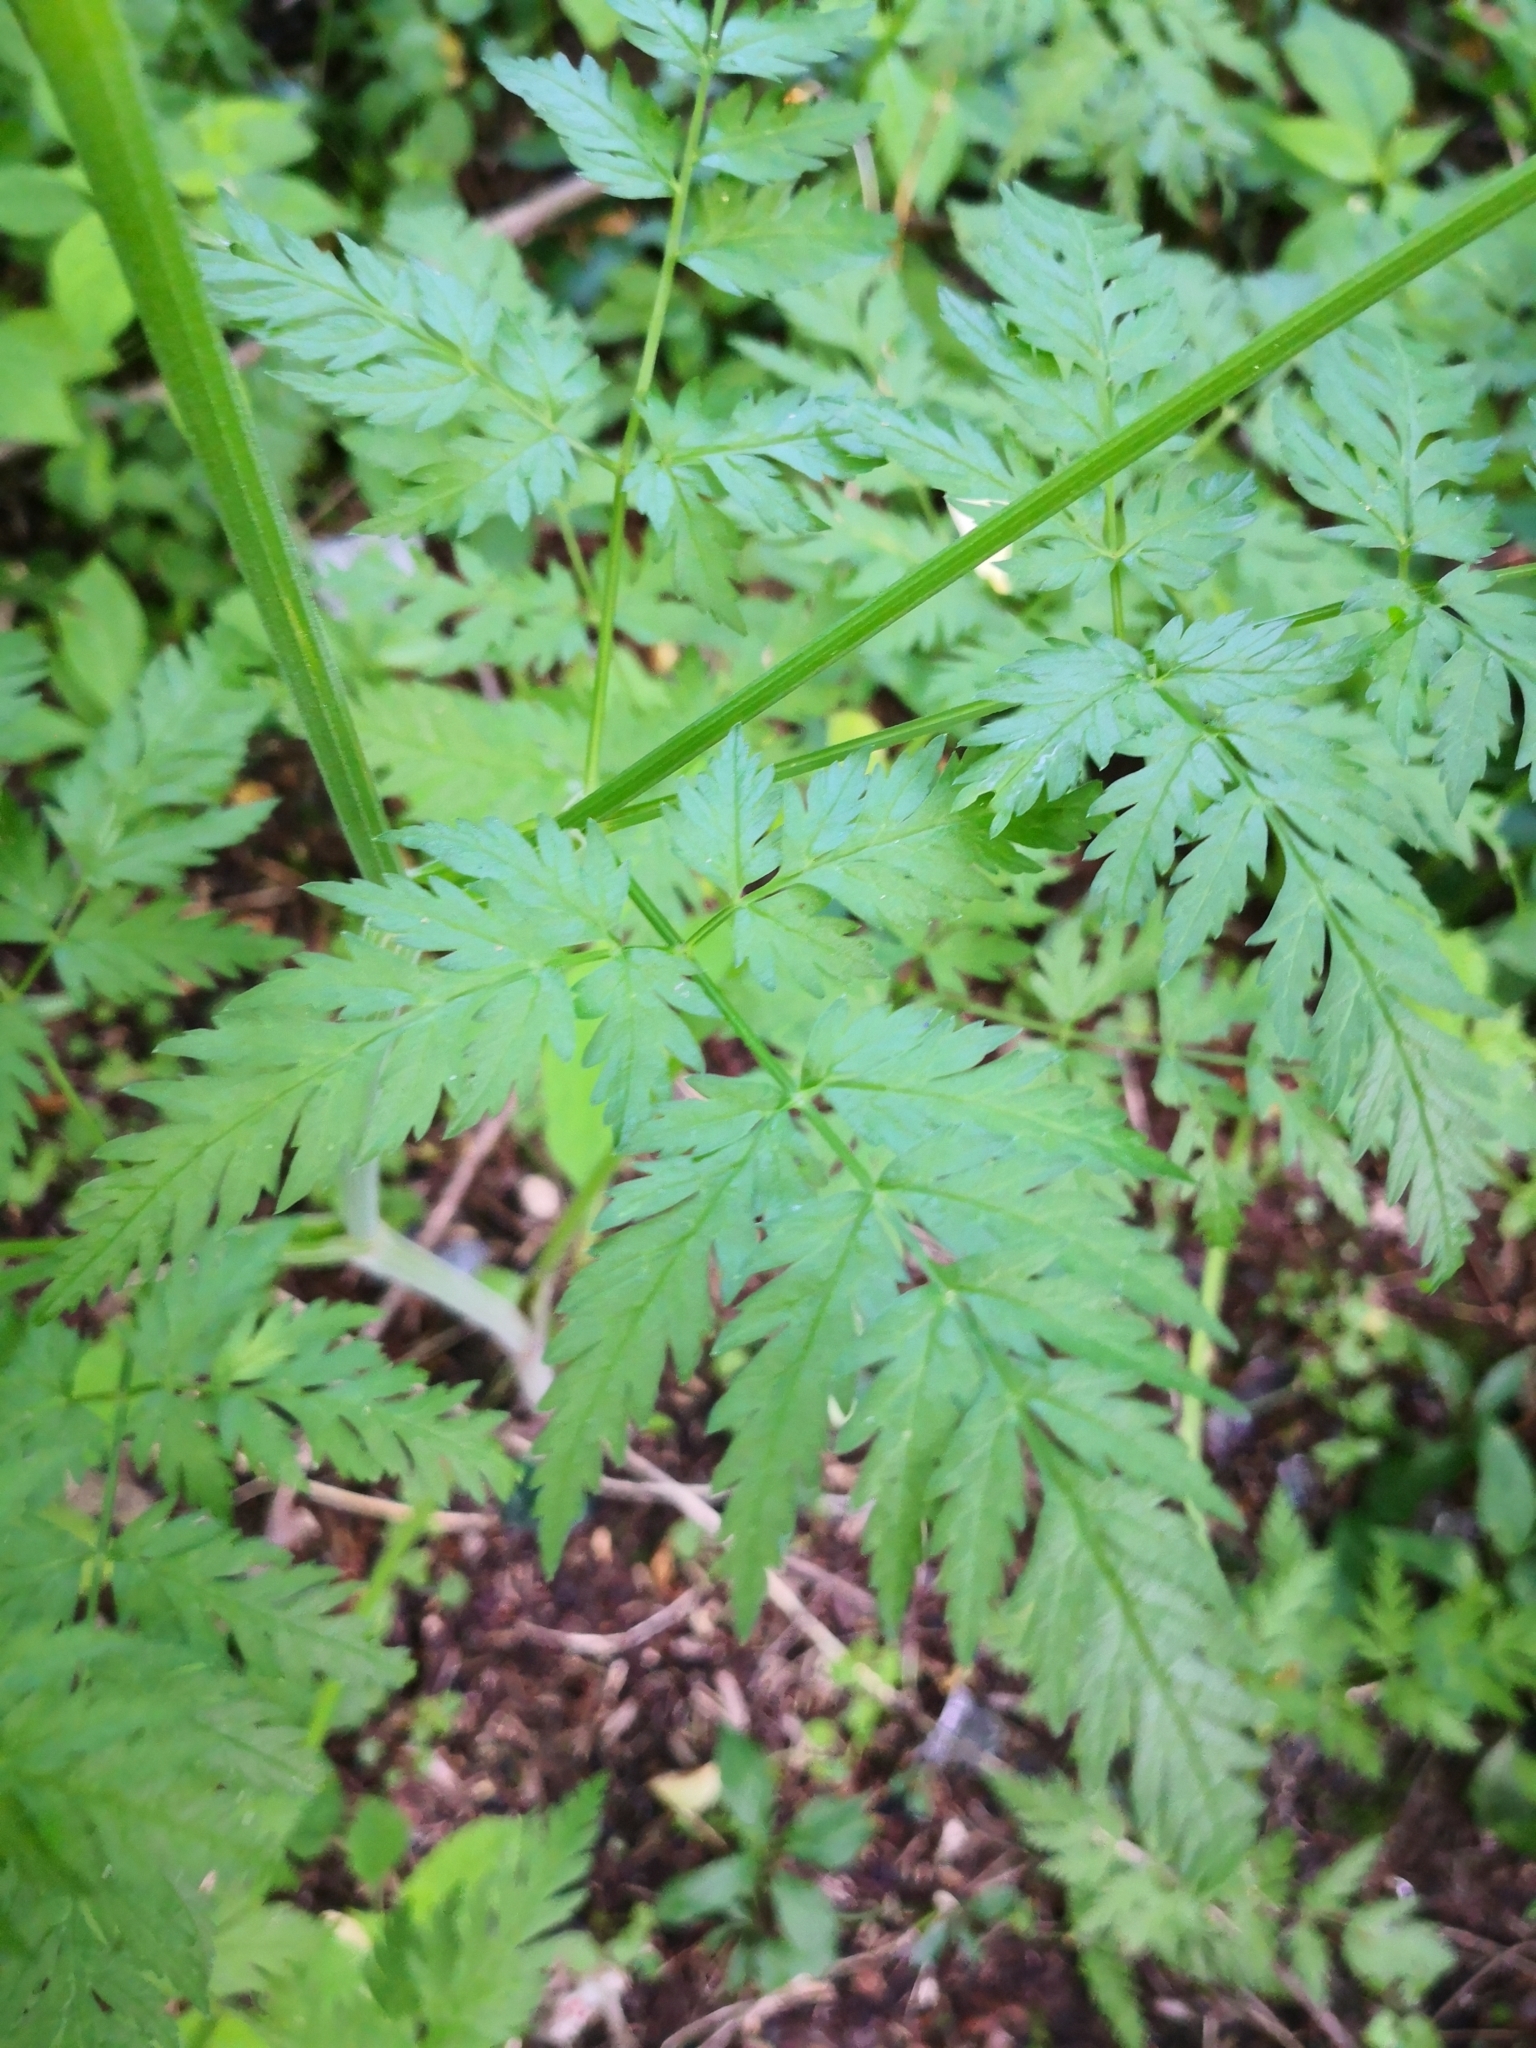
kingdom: Plantae
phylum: Tracheophyta
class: Magnoliopsida
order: Apiales
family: Apiaceae
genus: Anthriscus
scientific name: Anthriscus sylvestris
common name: Cow parsley
